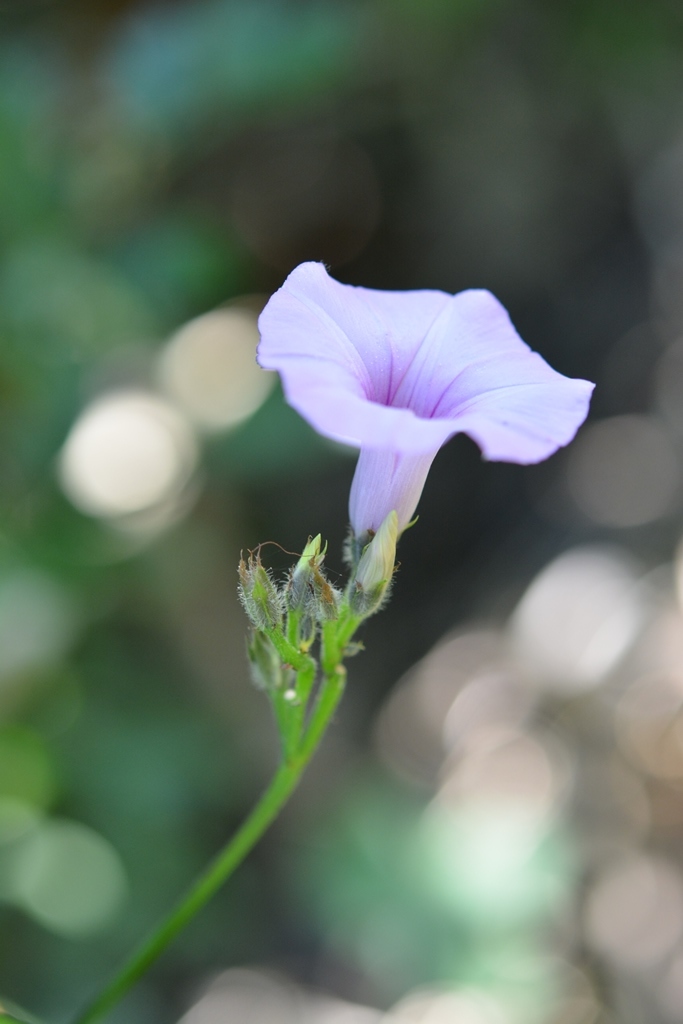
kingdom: Plantae
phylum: Tracheophyta
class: Magnoliopsida
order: Solanales
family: Convolvulaceae
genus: Ipomoea
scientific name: Ipomoea trifida
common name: Cotton morningglory
